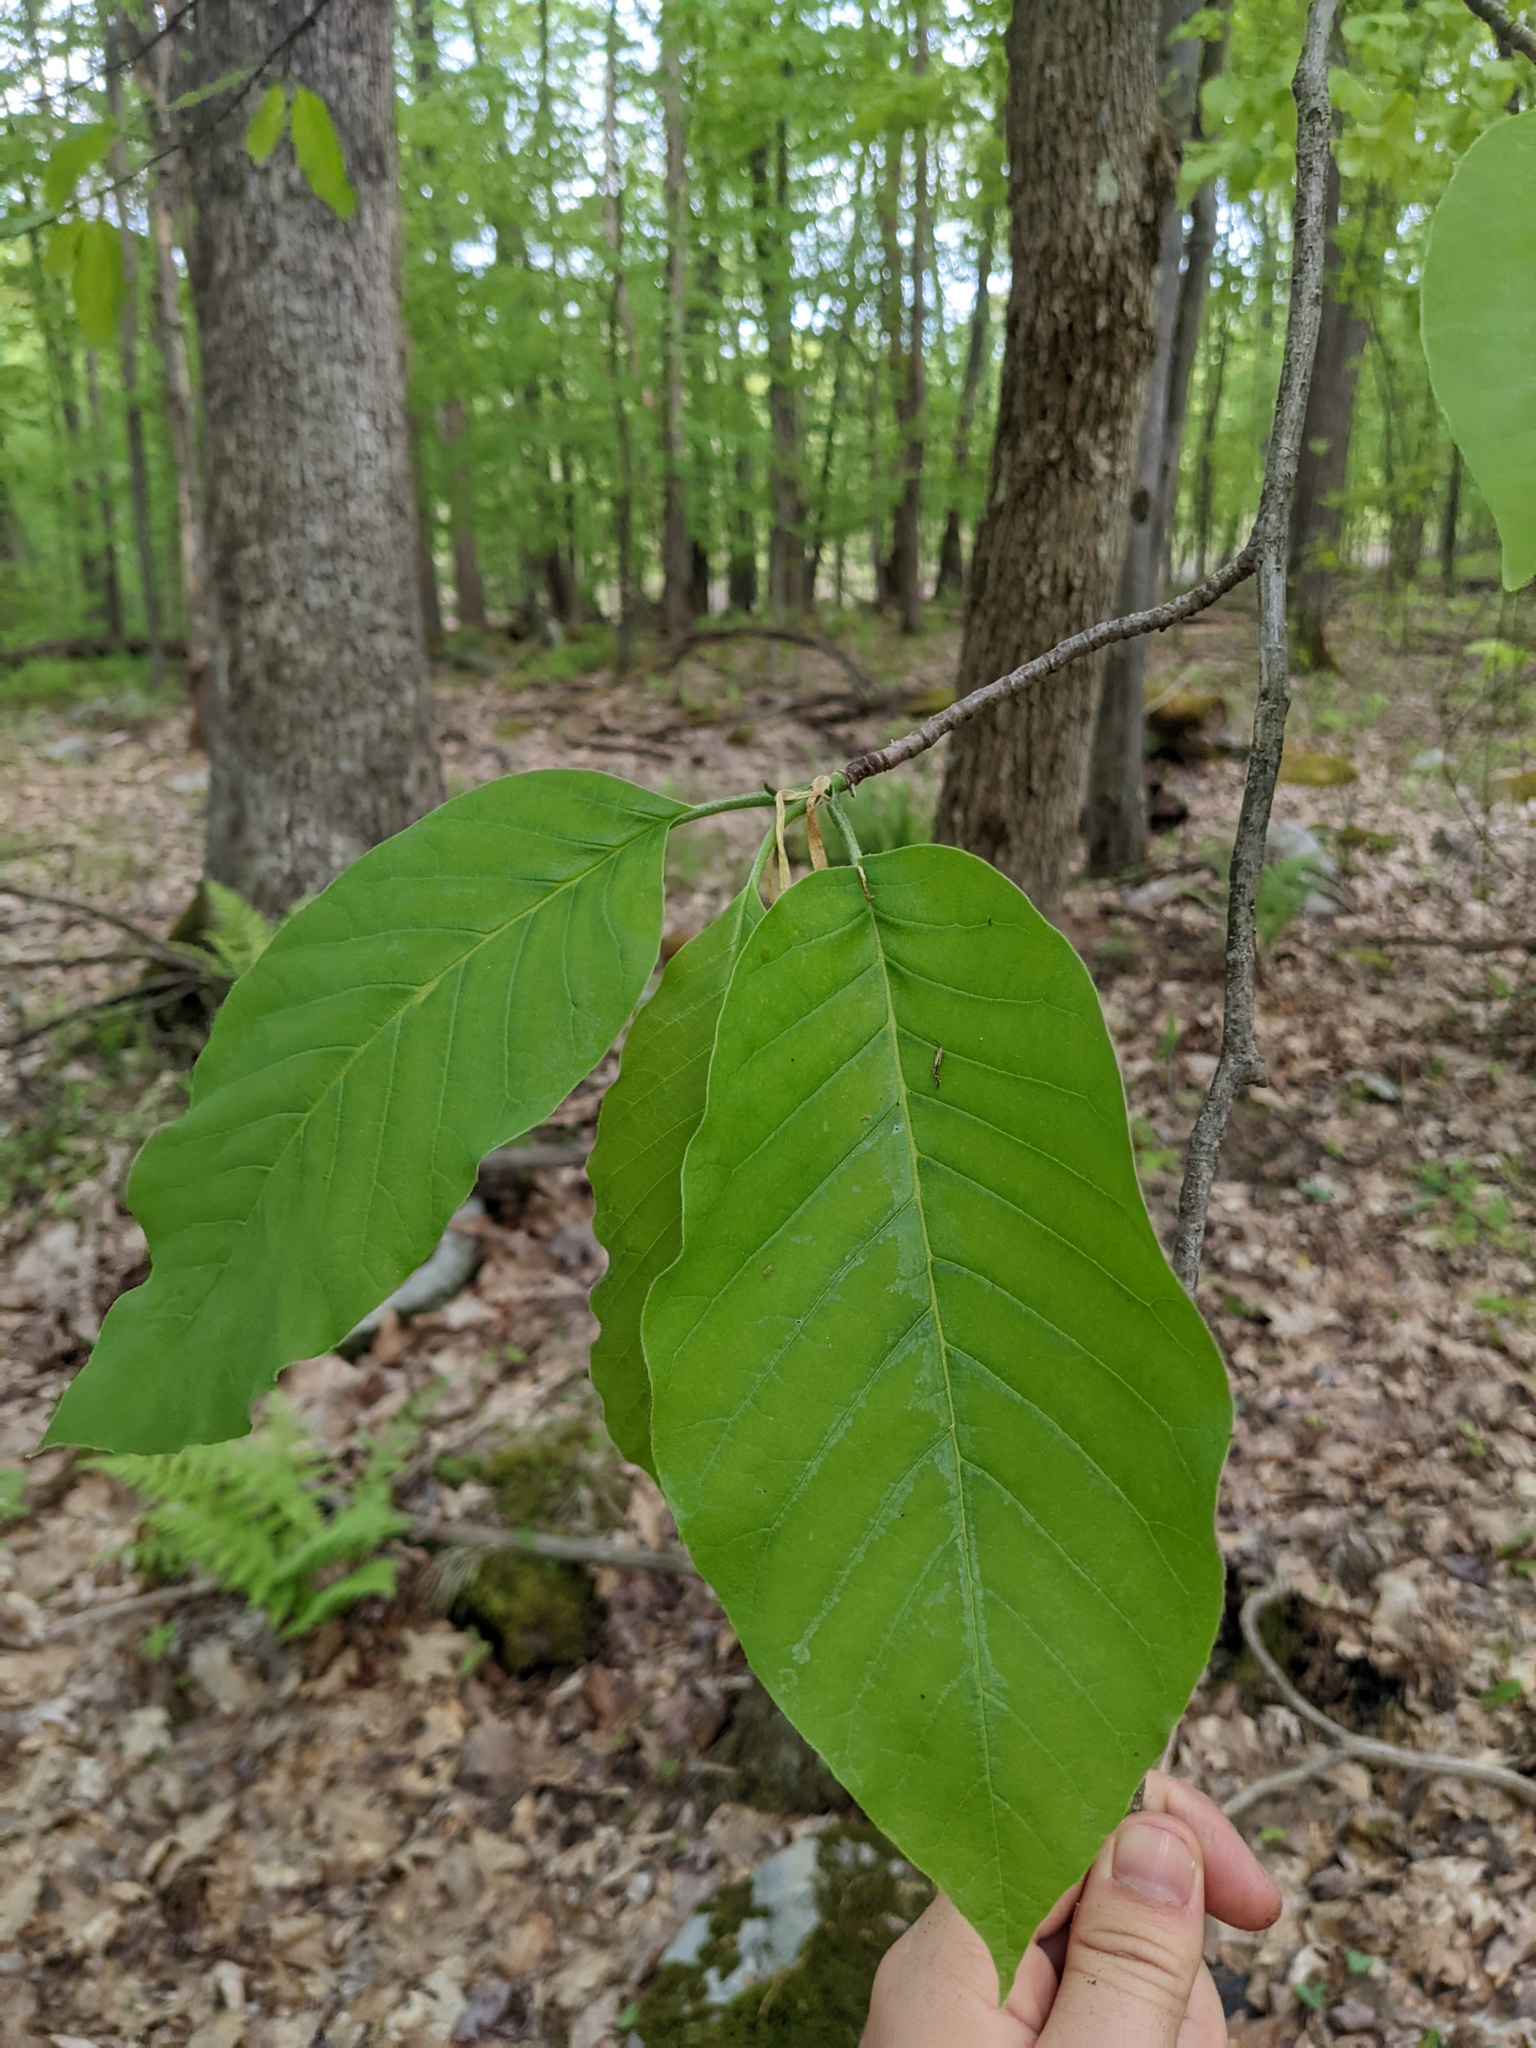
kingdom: Plantae
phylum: Tracheophyta
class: Magnoliopsida
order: Magnoliales
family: Magnoliaceae
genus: Magnolia
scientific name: Magnolia acuminata
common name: Cucumber magnolia
